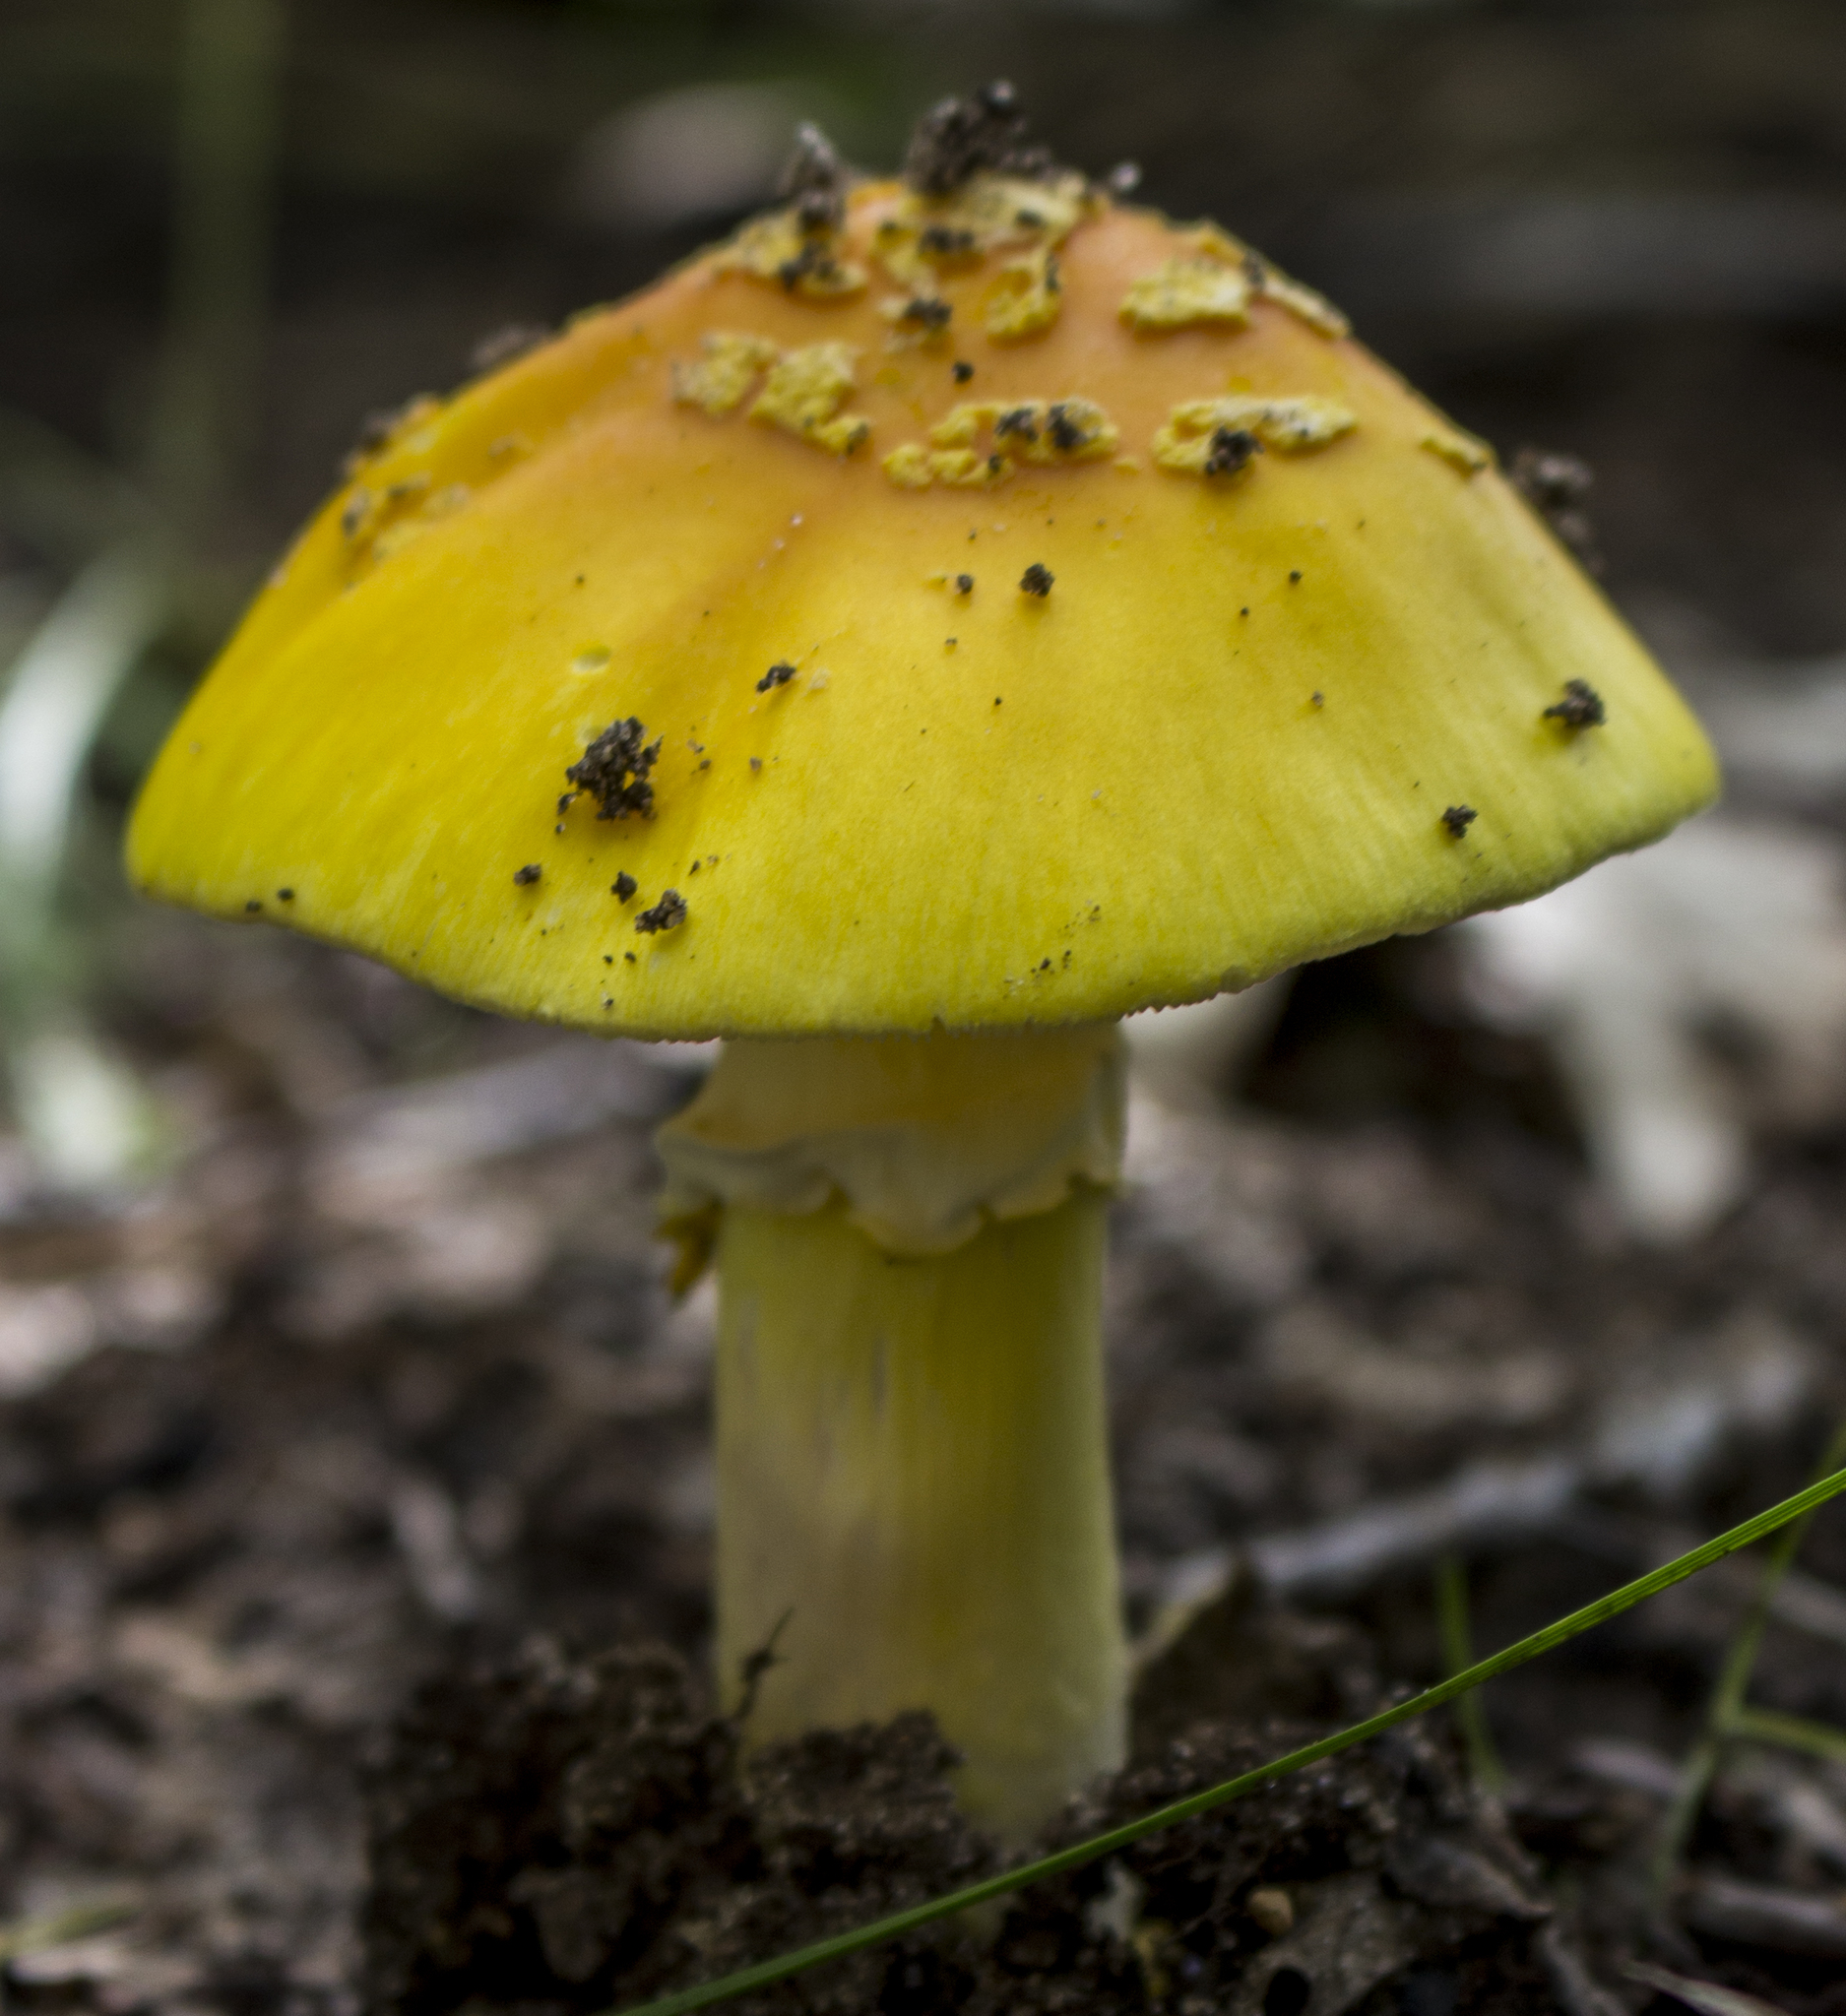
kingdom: Fungi
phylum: Basidiomycota
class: Agaricomycetes
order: Agaricales
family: Amanitaceae
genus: Amanita
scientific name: Amanita flavoconia
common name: Yellow patches
